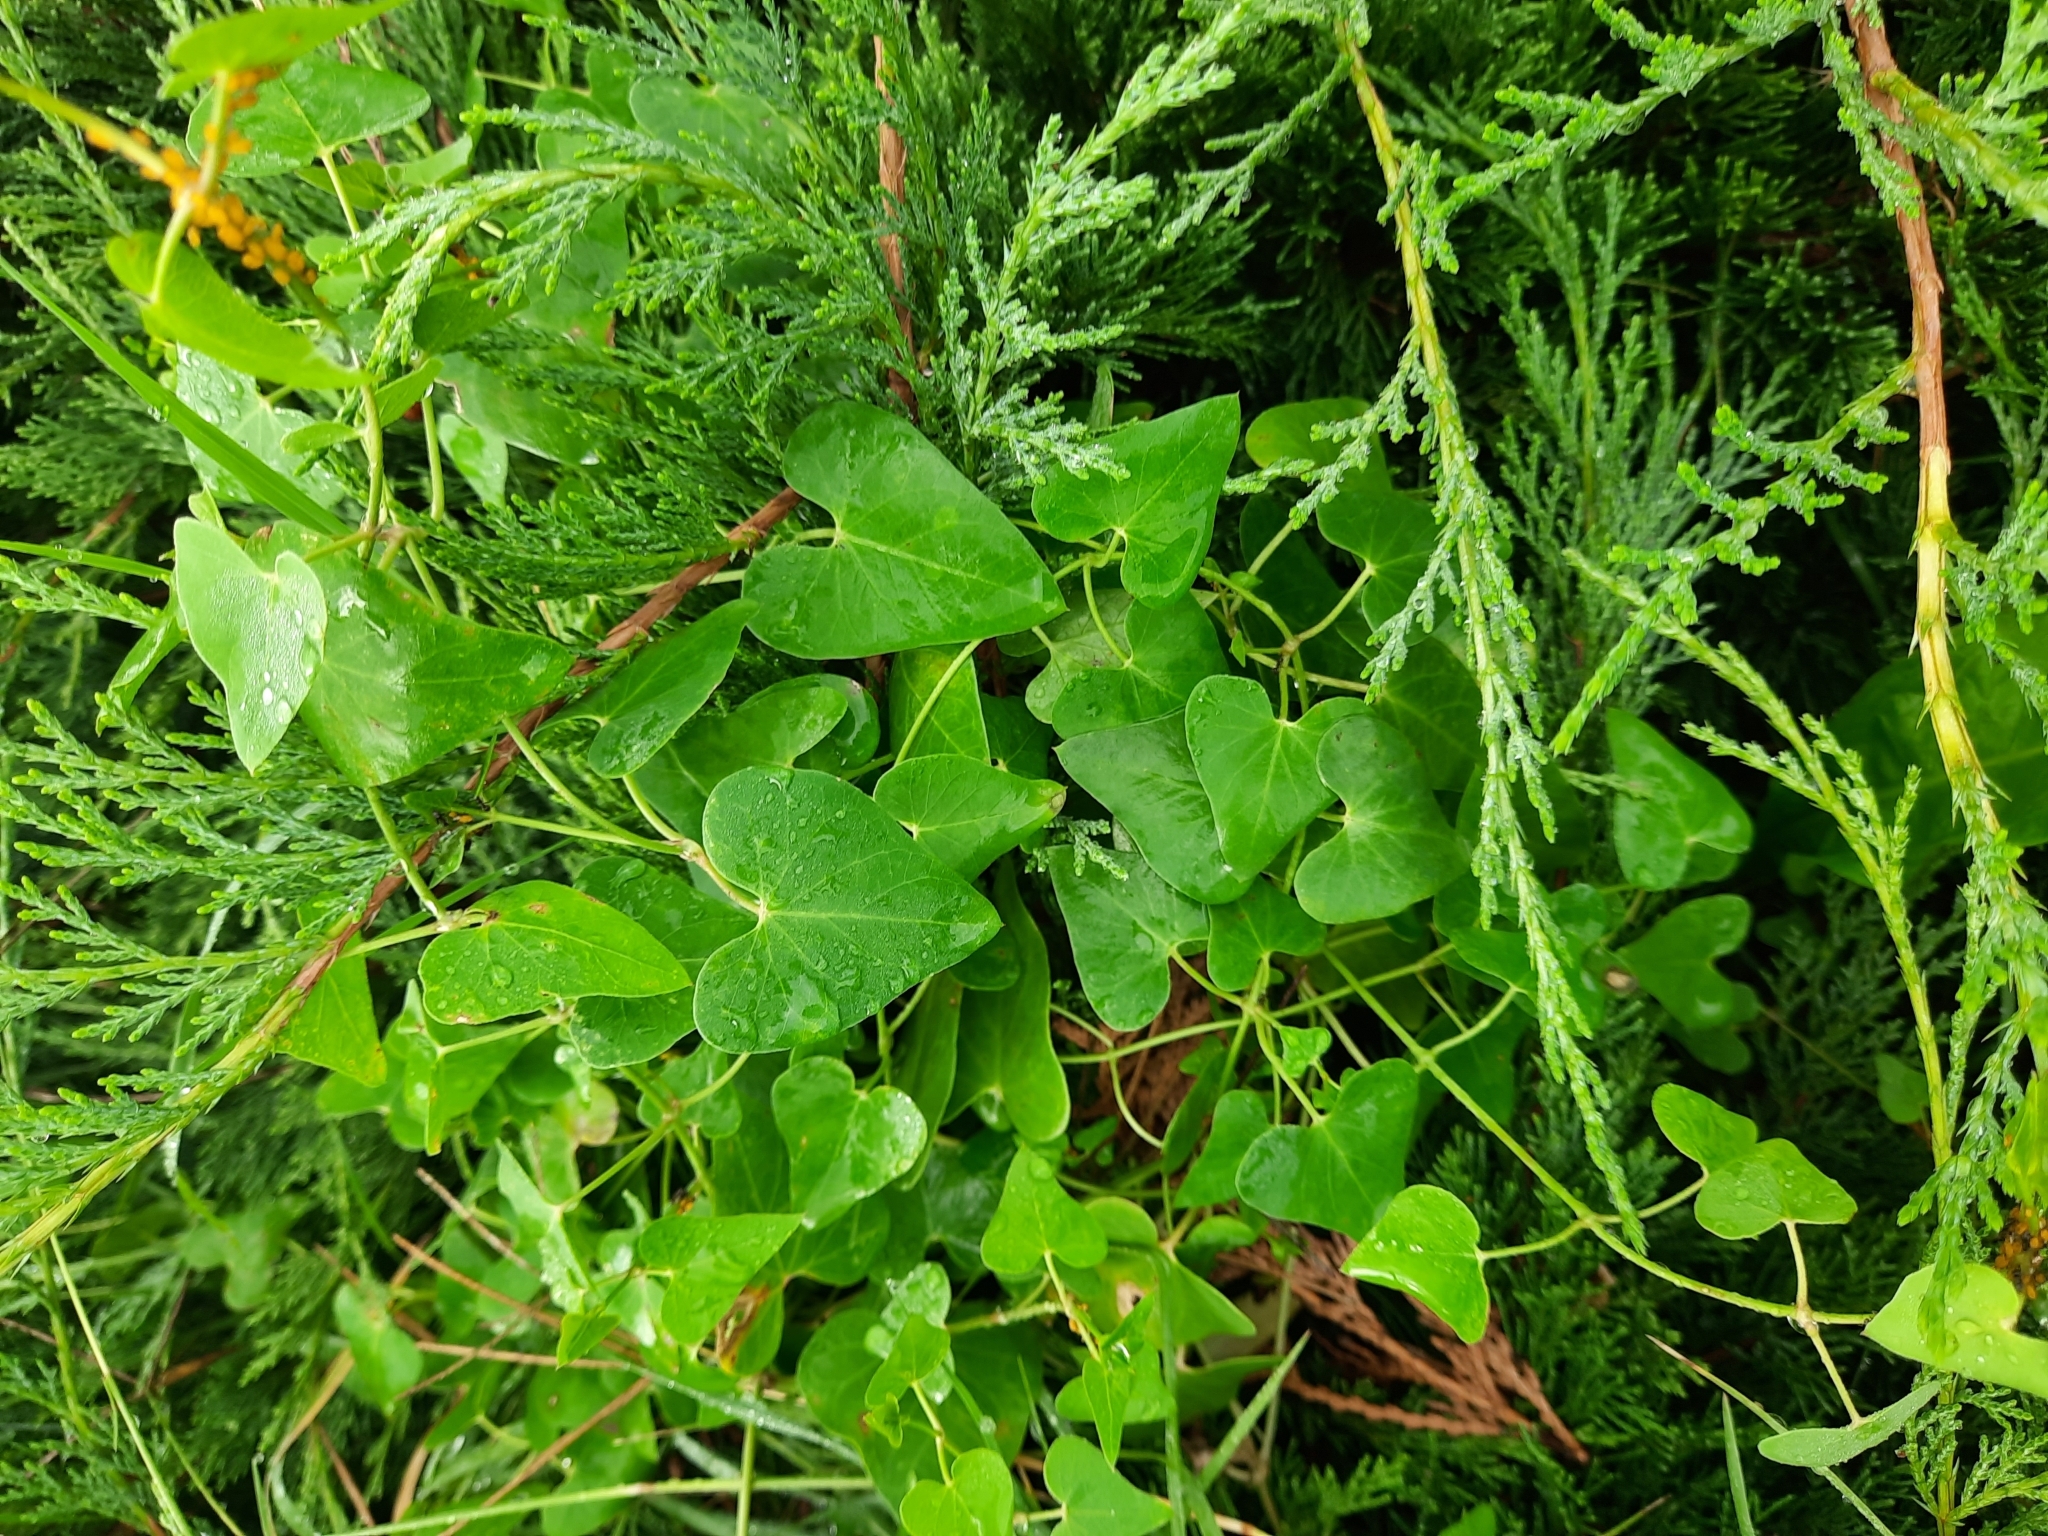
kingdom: Plantae
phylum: Tracheophyta
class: Magnoliopsida
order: Gentianales
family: Apocynaceae
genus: Cynanchum
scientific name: Cynanchum acutum
